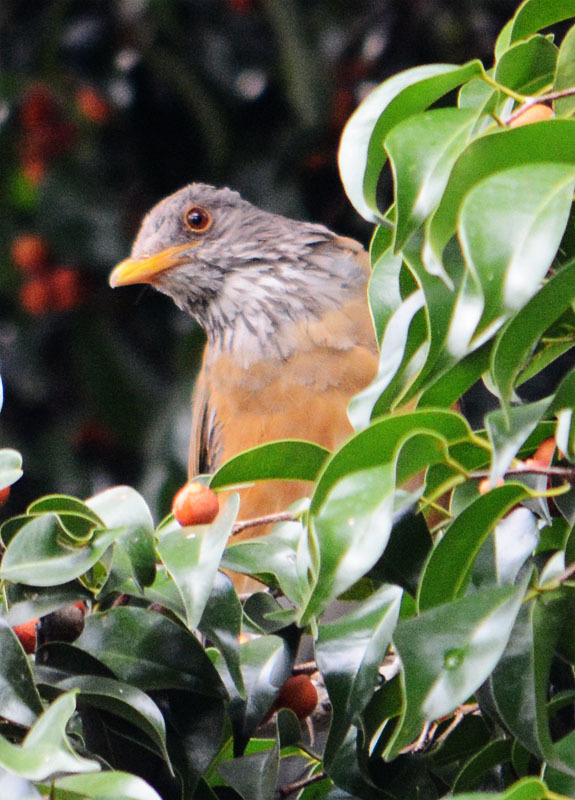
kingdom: Animalia
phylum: Chordata
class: Aves
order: Passeriformes
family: Turdidae
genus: Turdus
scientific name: Turdus rufopalliatus
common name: Rufous-backed robin
